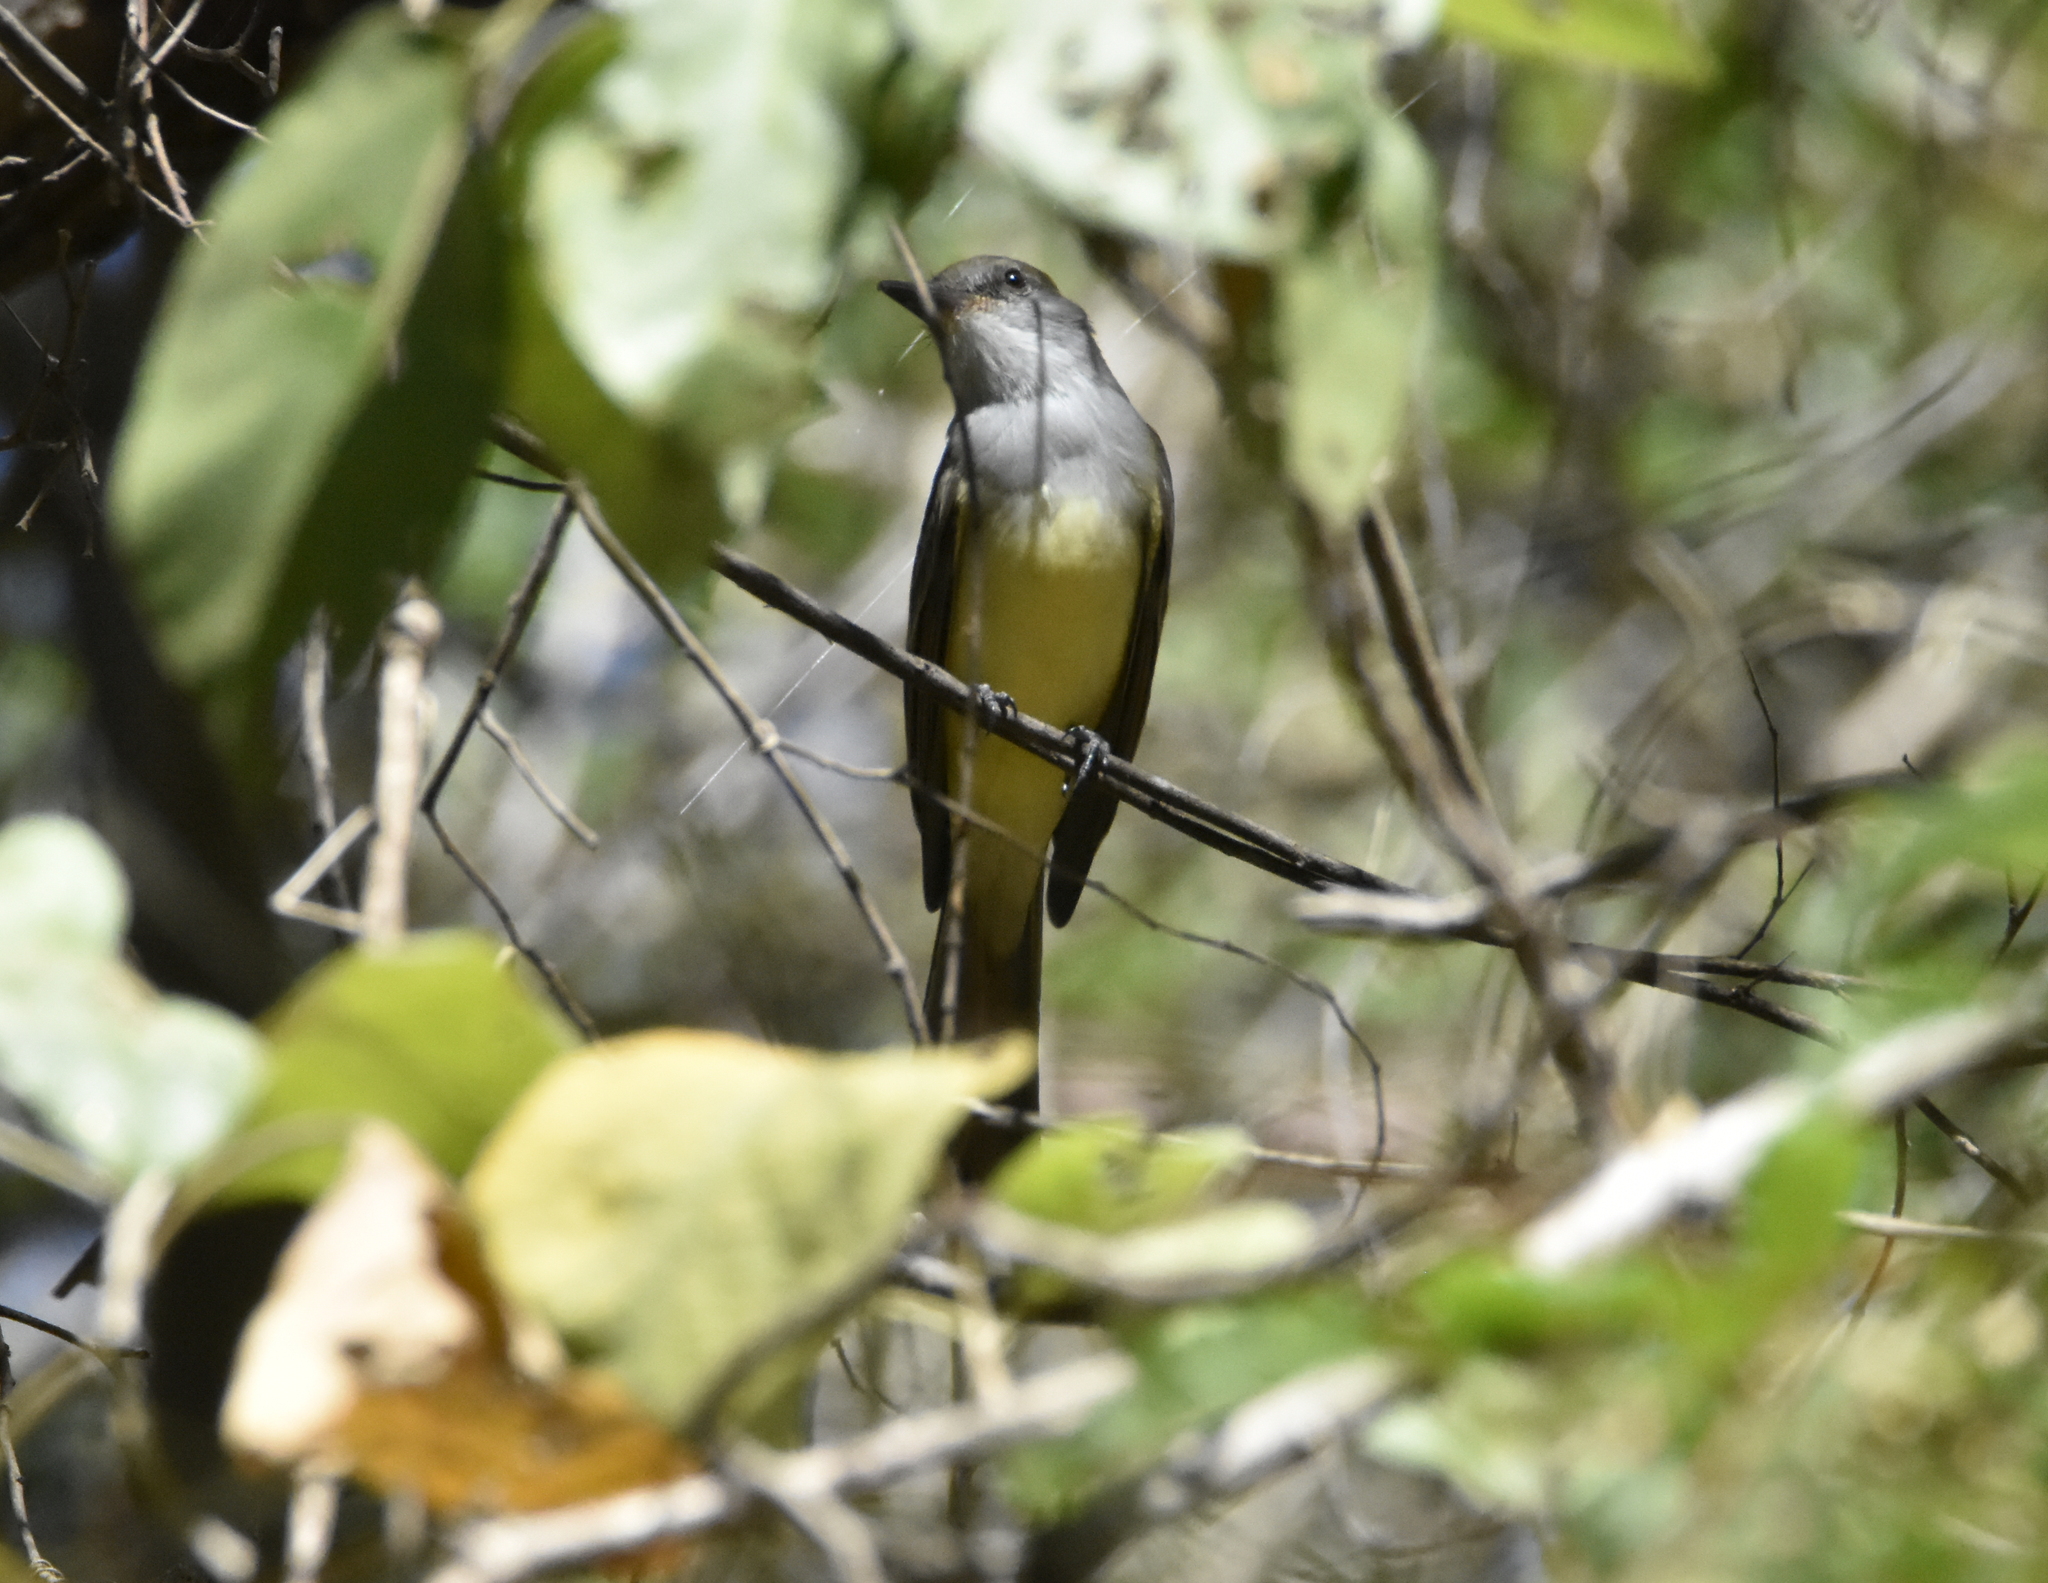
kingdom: Animalia
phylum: Chordata
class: Aves
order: Passeriformes
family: Tyrannidae
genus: Myiarchus
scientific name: Myiarchus nuttingi
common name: Nutting's flycatcher
